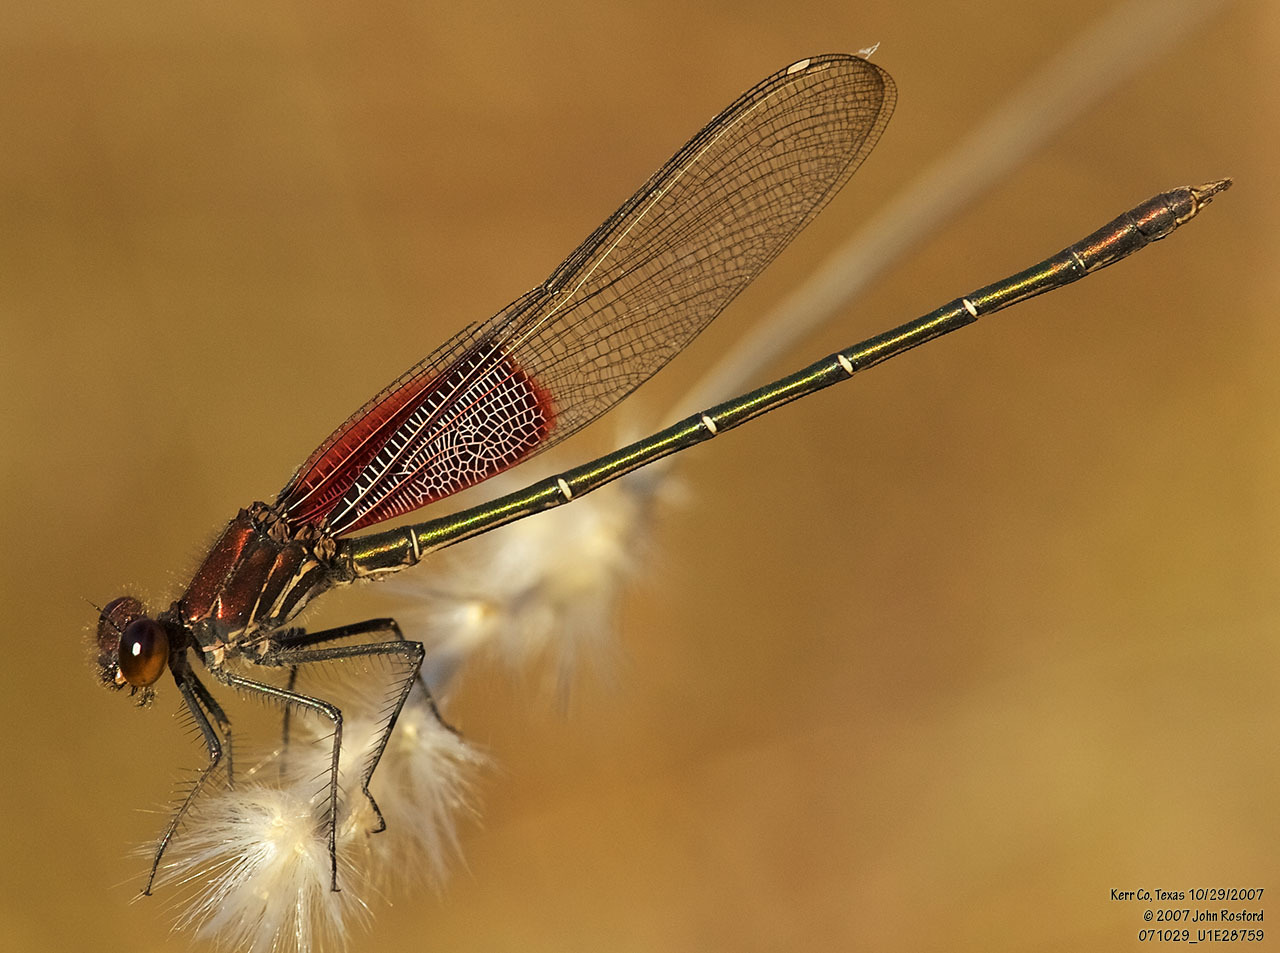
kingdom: Animalia
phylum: Arthropoda
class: Insecta
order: Odonata
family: Calopterygidae
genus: Hetaerina
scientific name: Hetaerina americana
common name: American rubyspot
